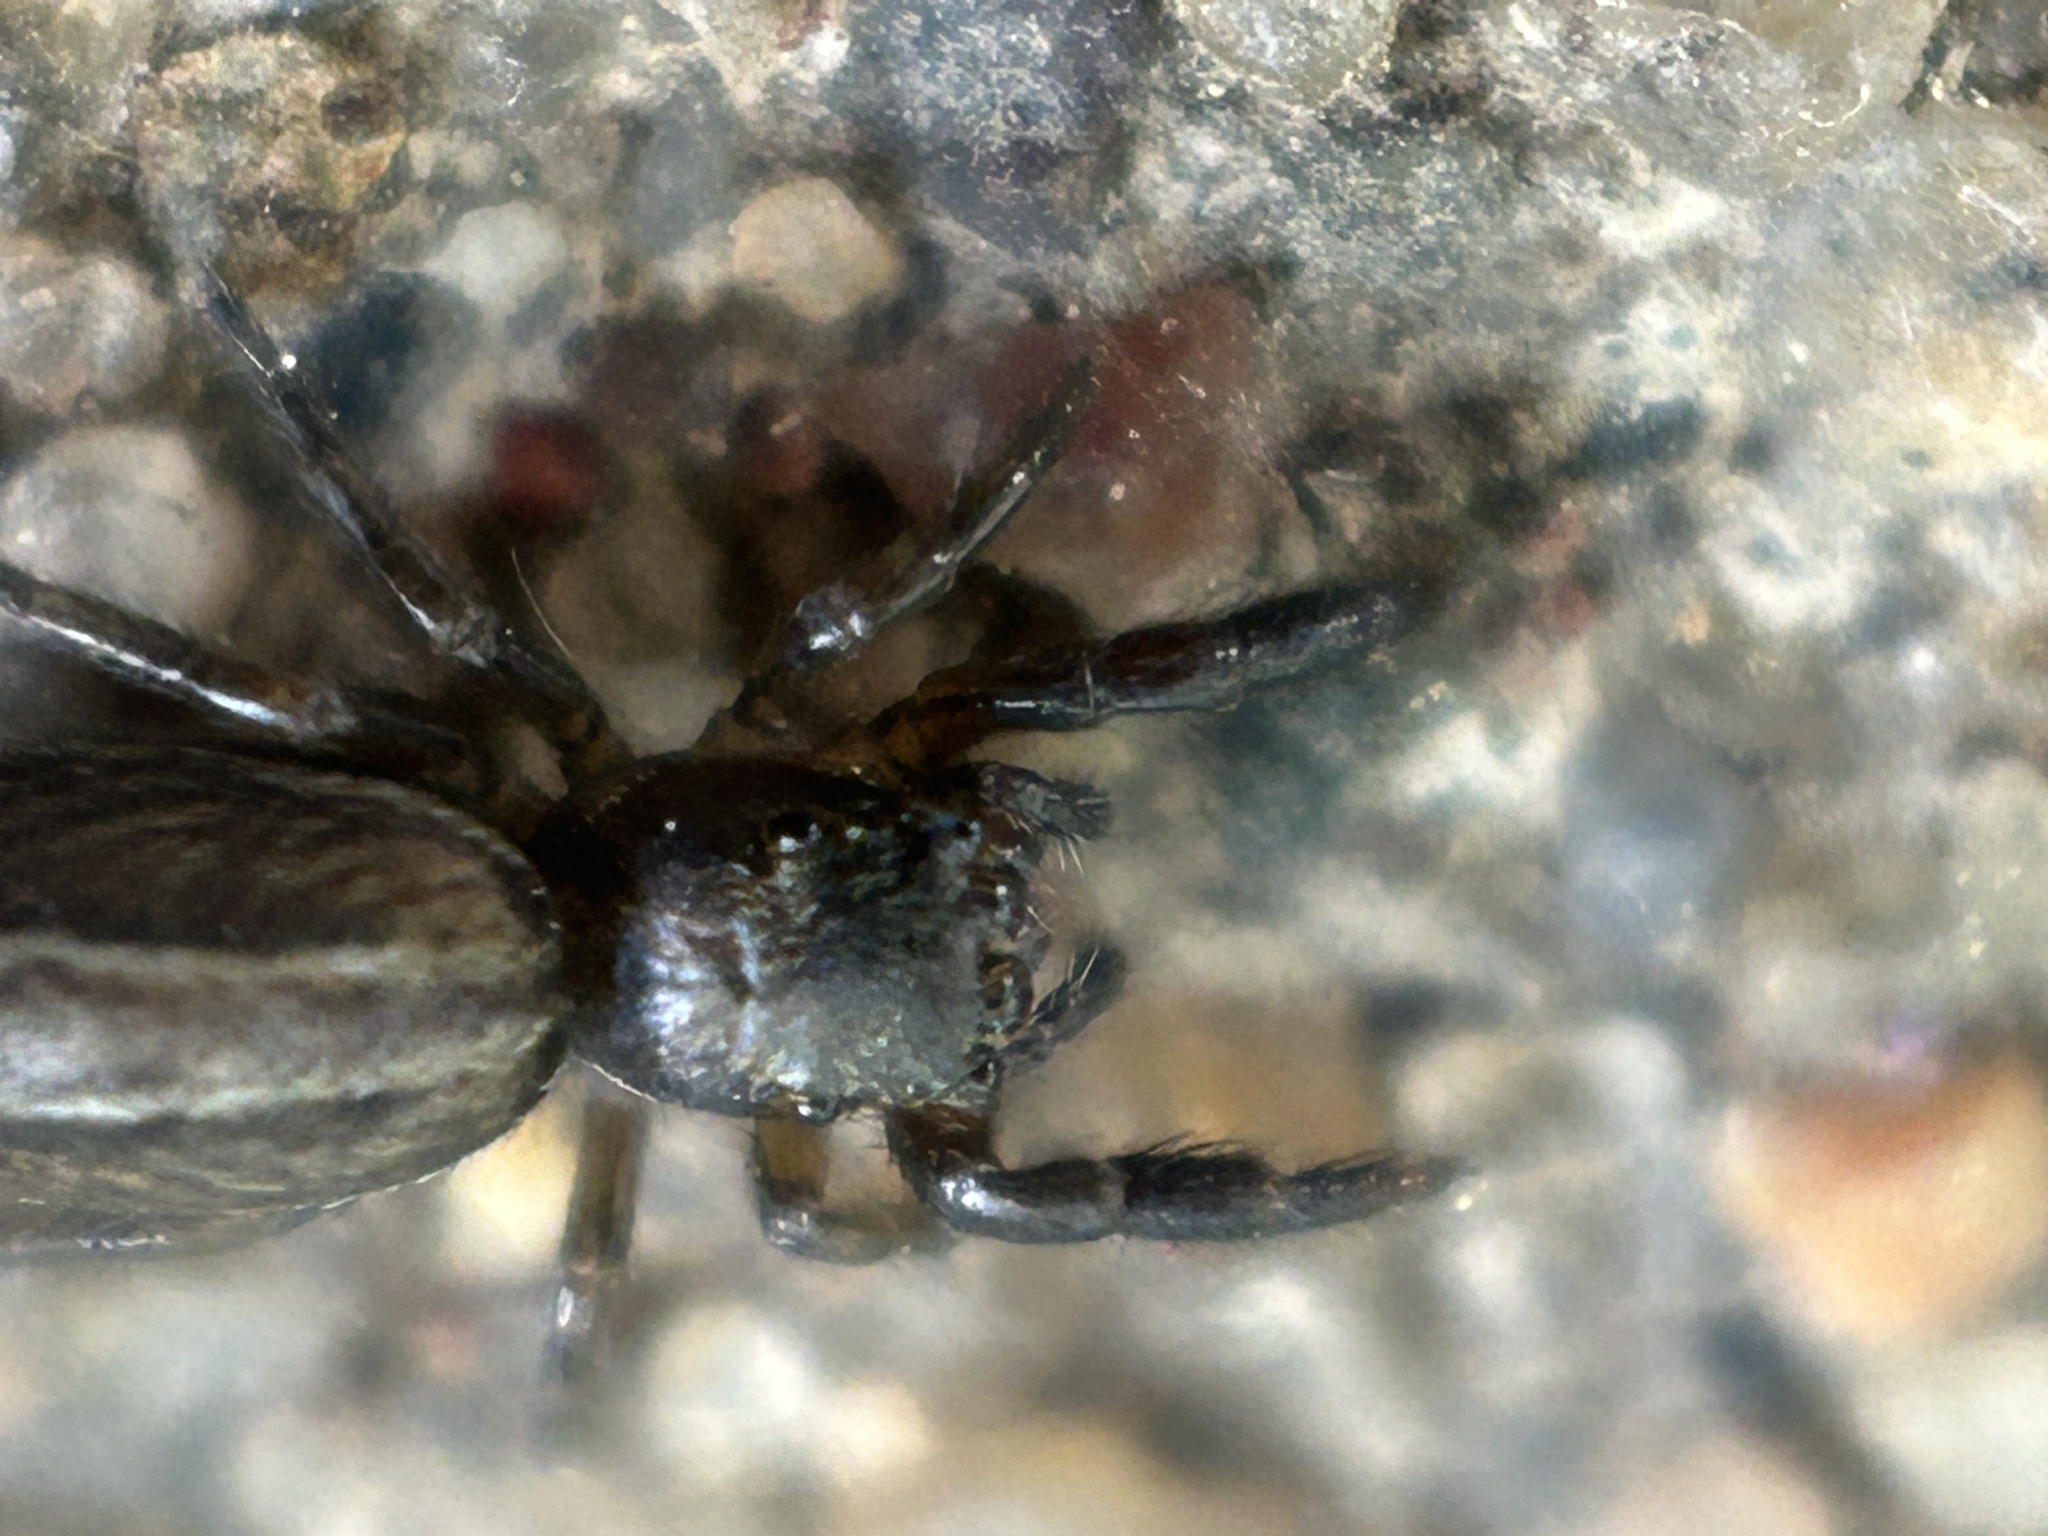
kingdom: Animalia
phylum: Arthropoda
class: Arachnida
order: Araneae
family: Salticidae
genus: Marpissa
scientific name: Marpissa lineata
